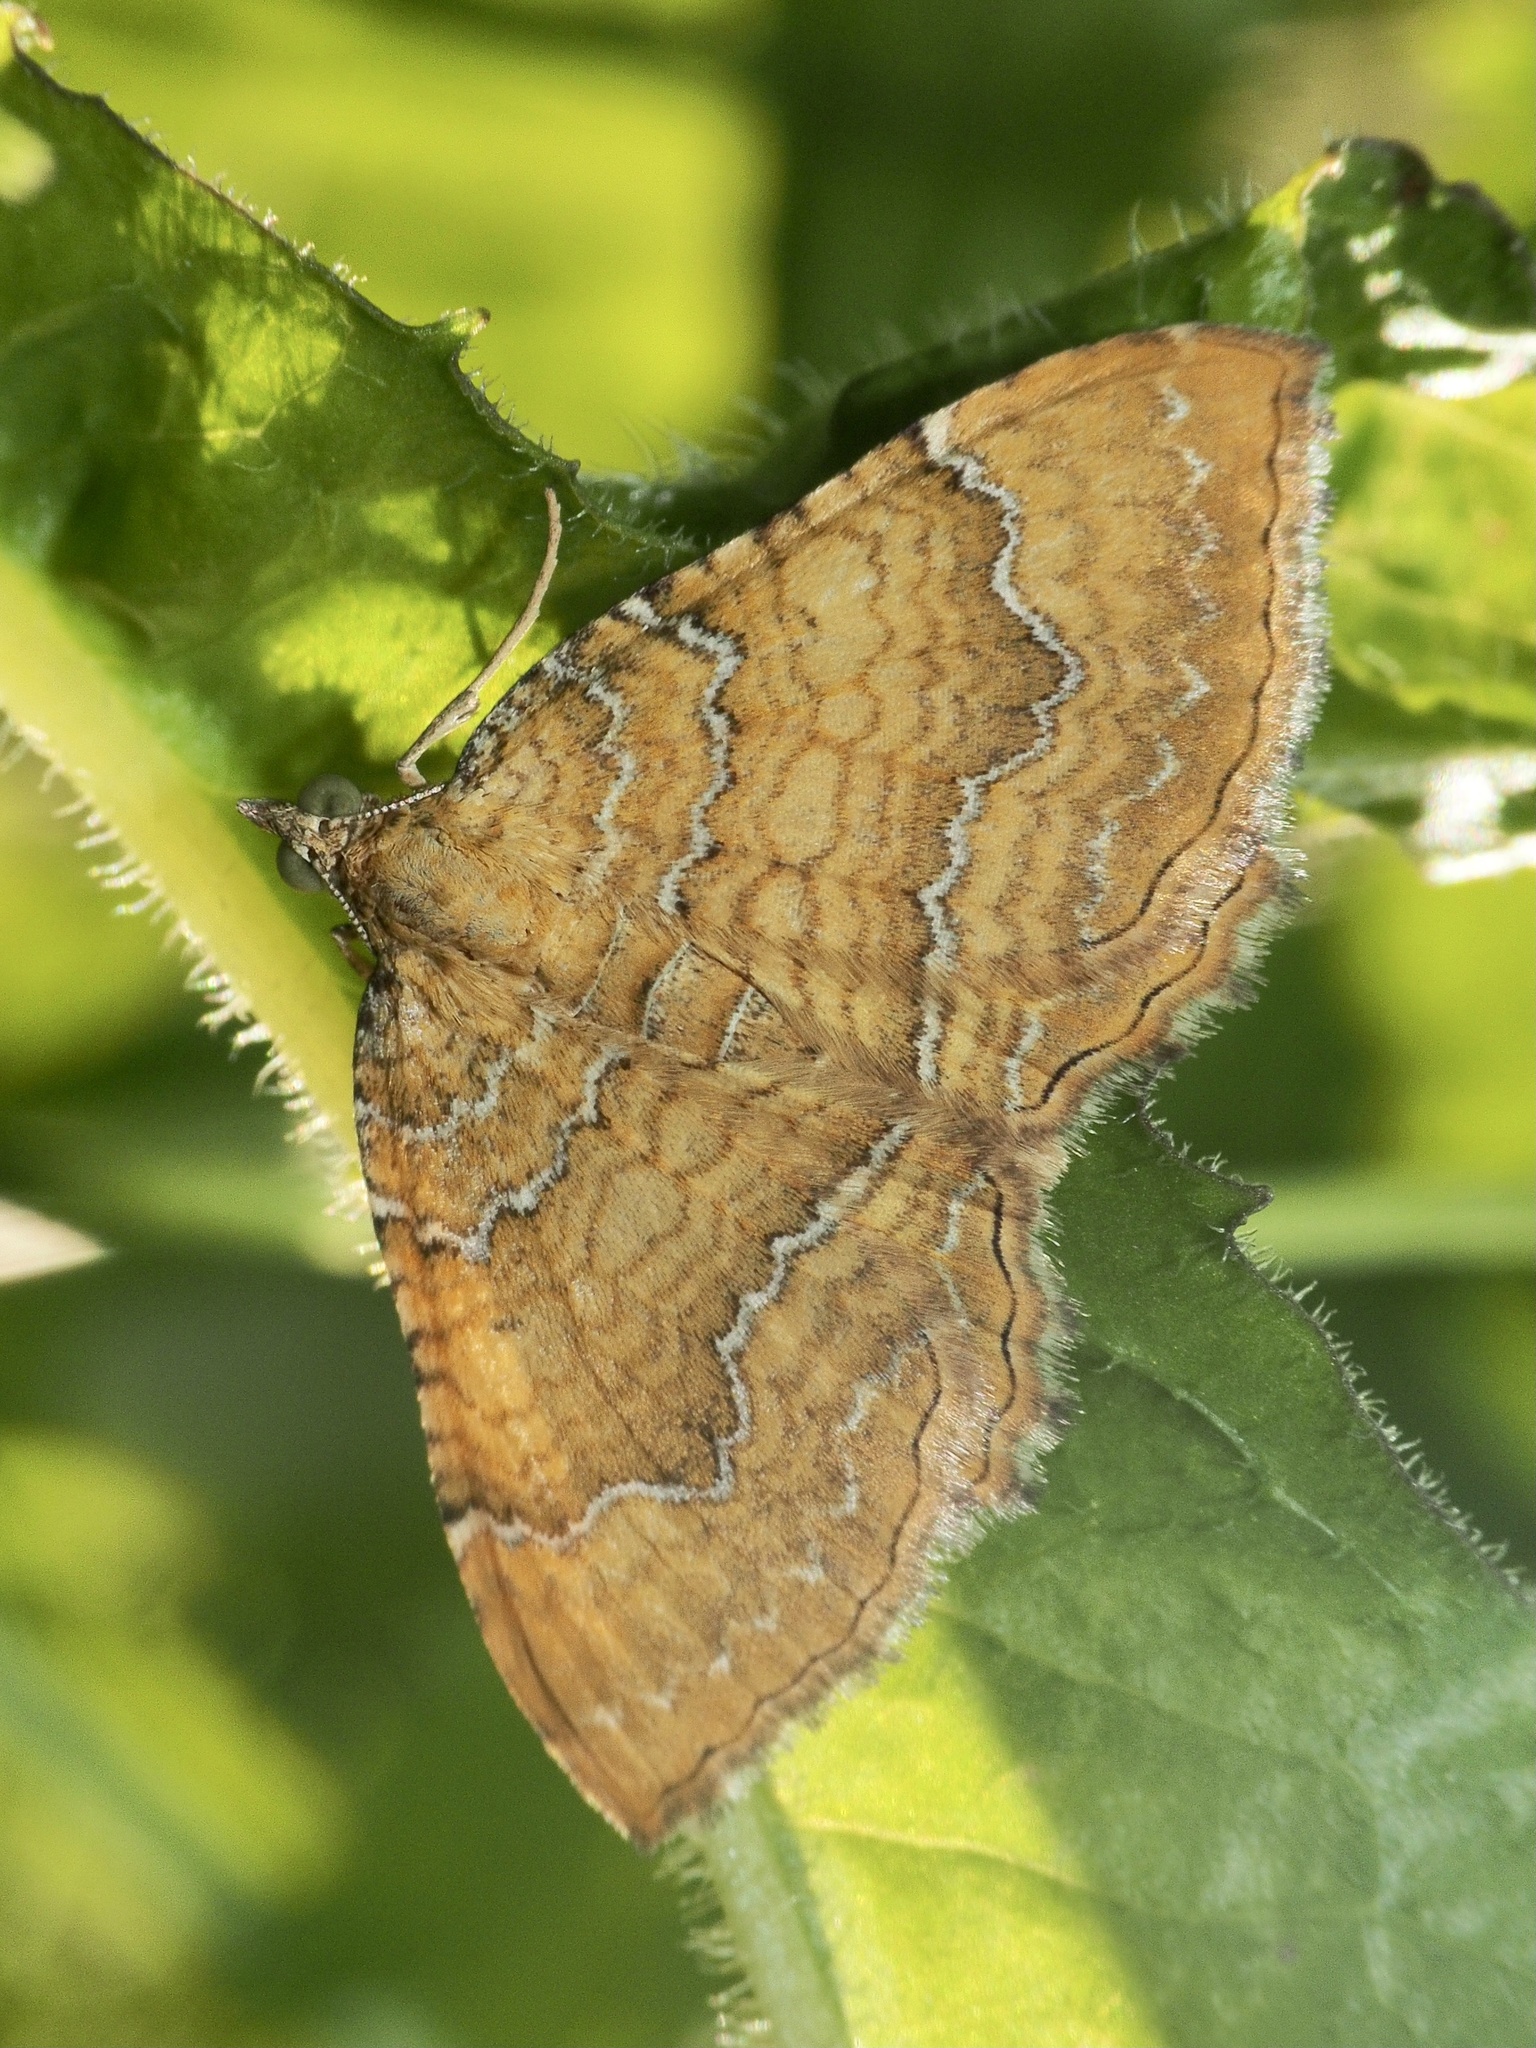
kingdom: Animalia
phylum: Arthropoda
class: Insecta
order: Lepidoptera
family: Geometridae
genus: Camptogramma
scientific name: Camptogramma bilineata
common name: Yellow shell
